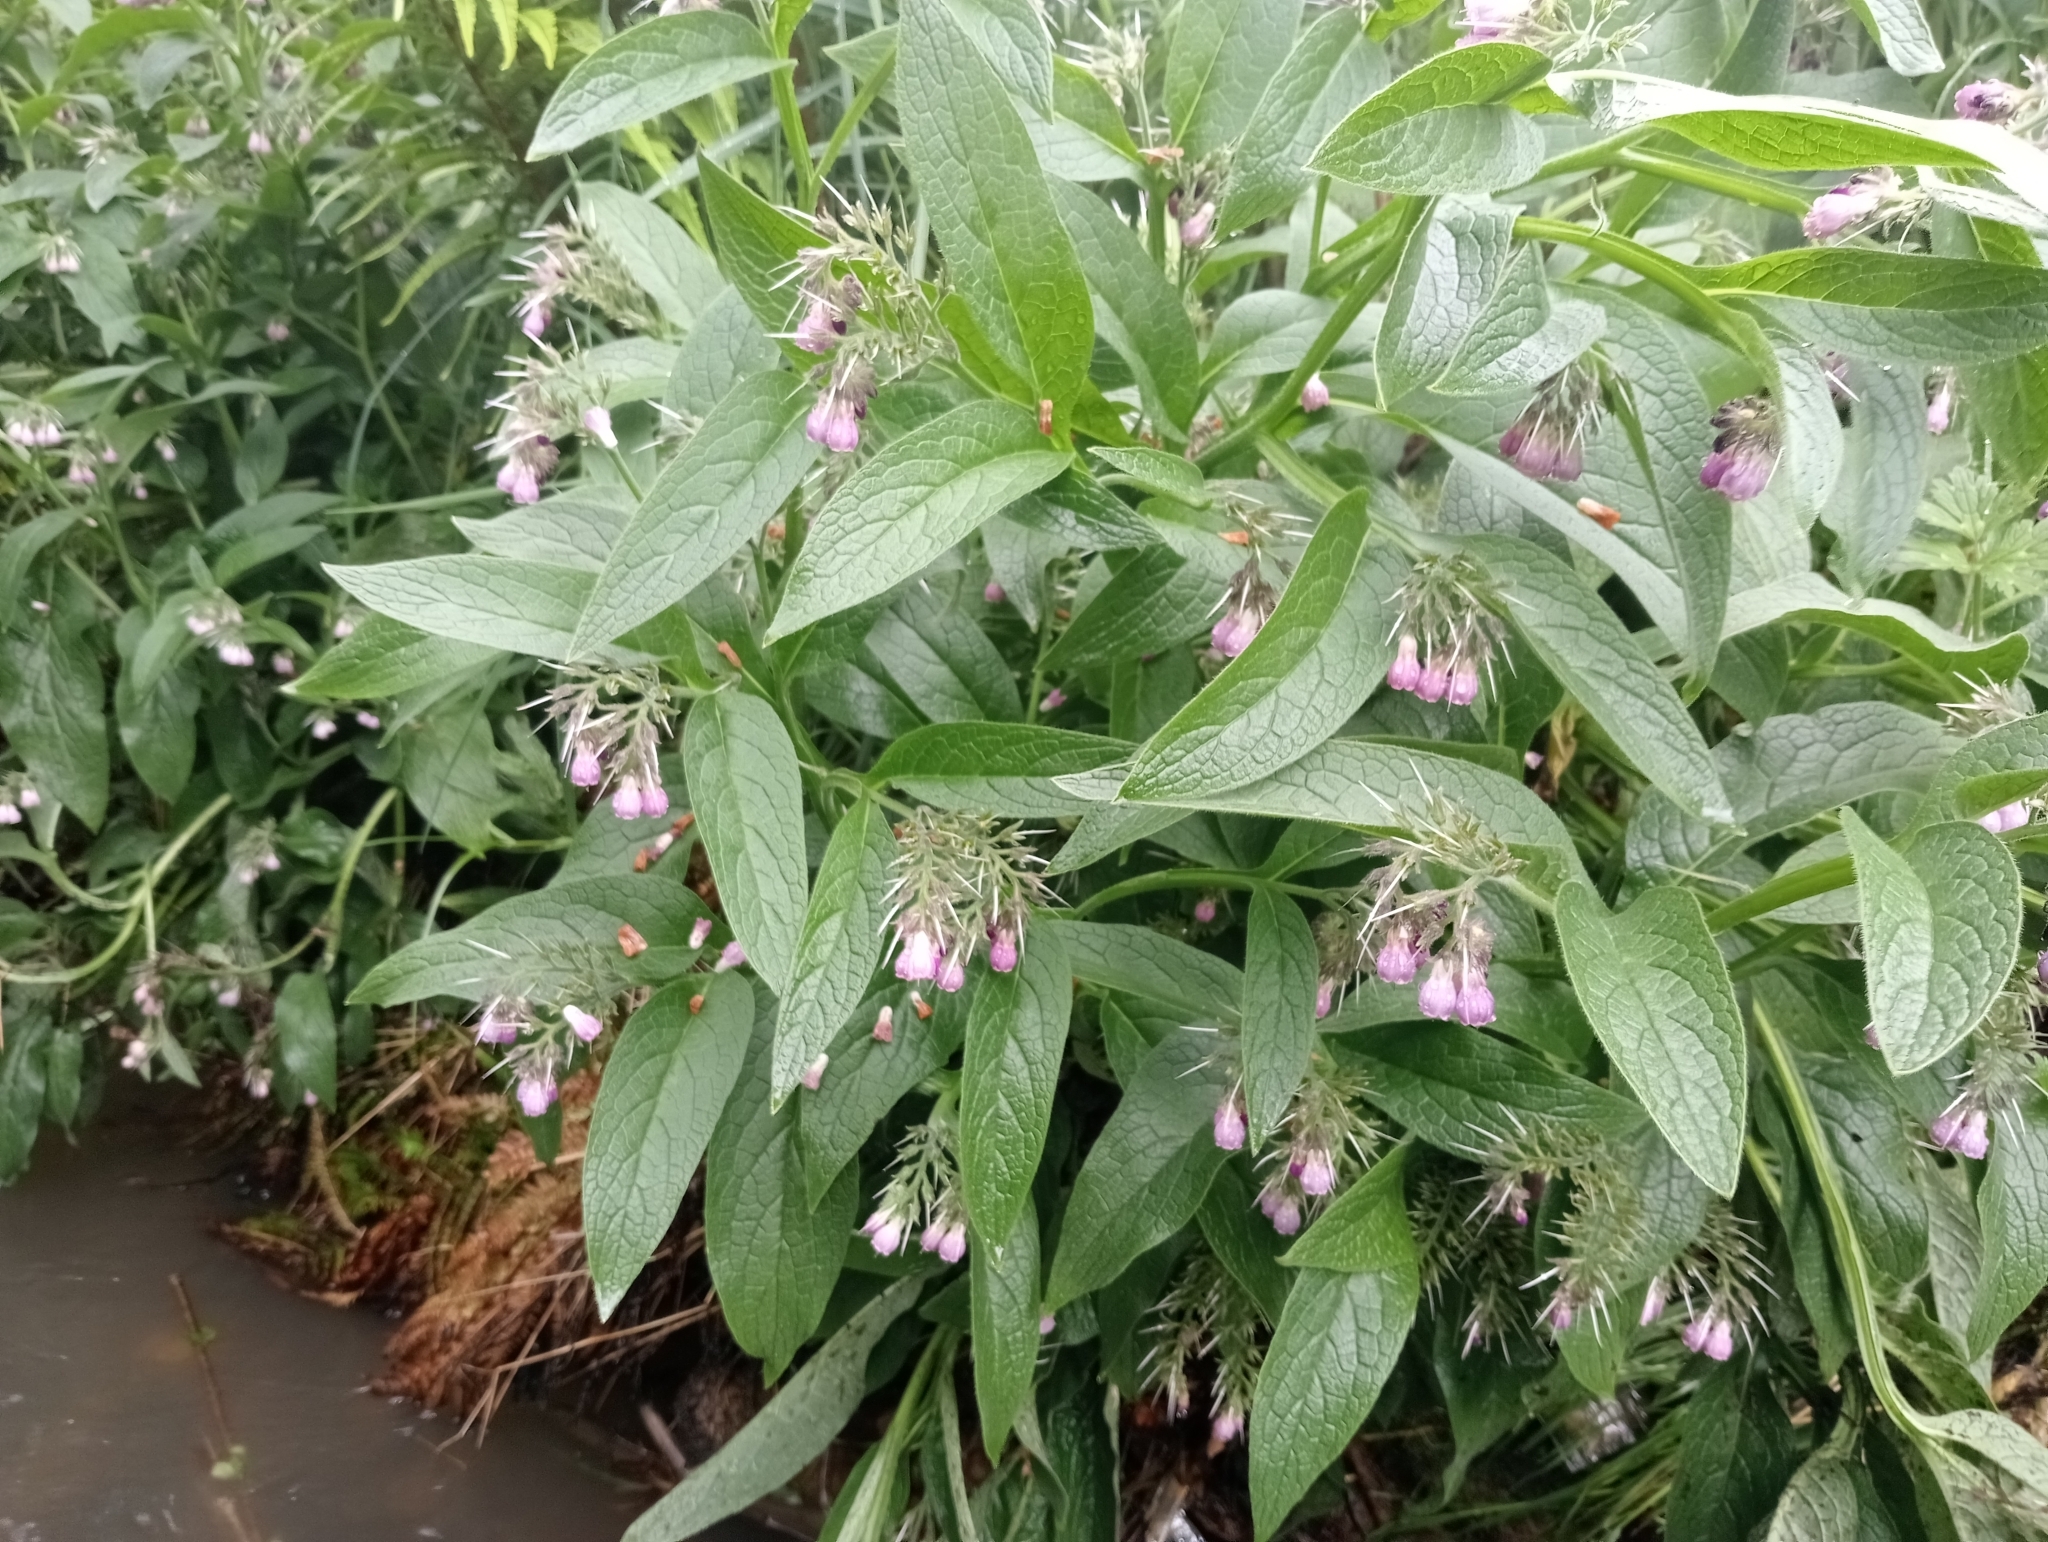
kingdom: Plantae
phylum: Tracheophyta
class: Magnoliopsida
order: Boraginales
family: Boraginaceae
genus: Symphytum
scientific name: Symphytum officinale
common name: Common comfrey
